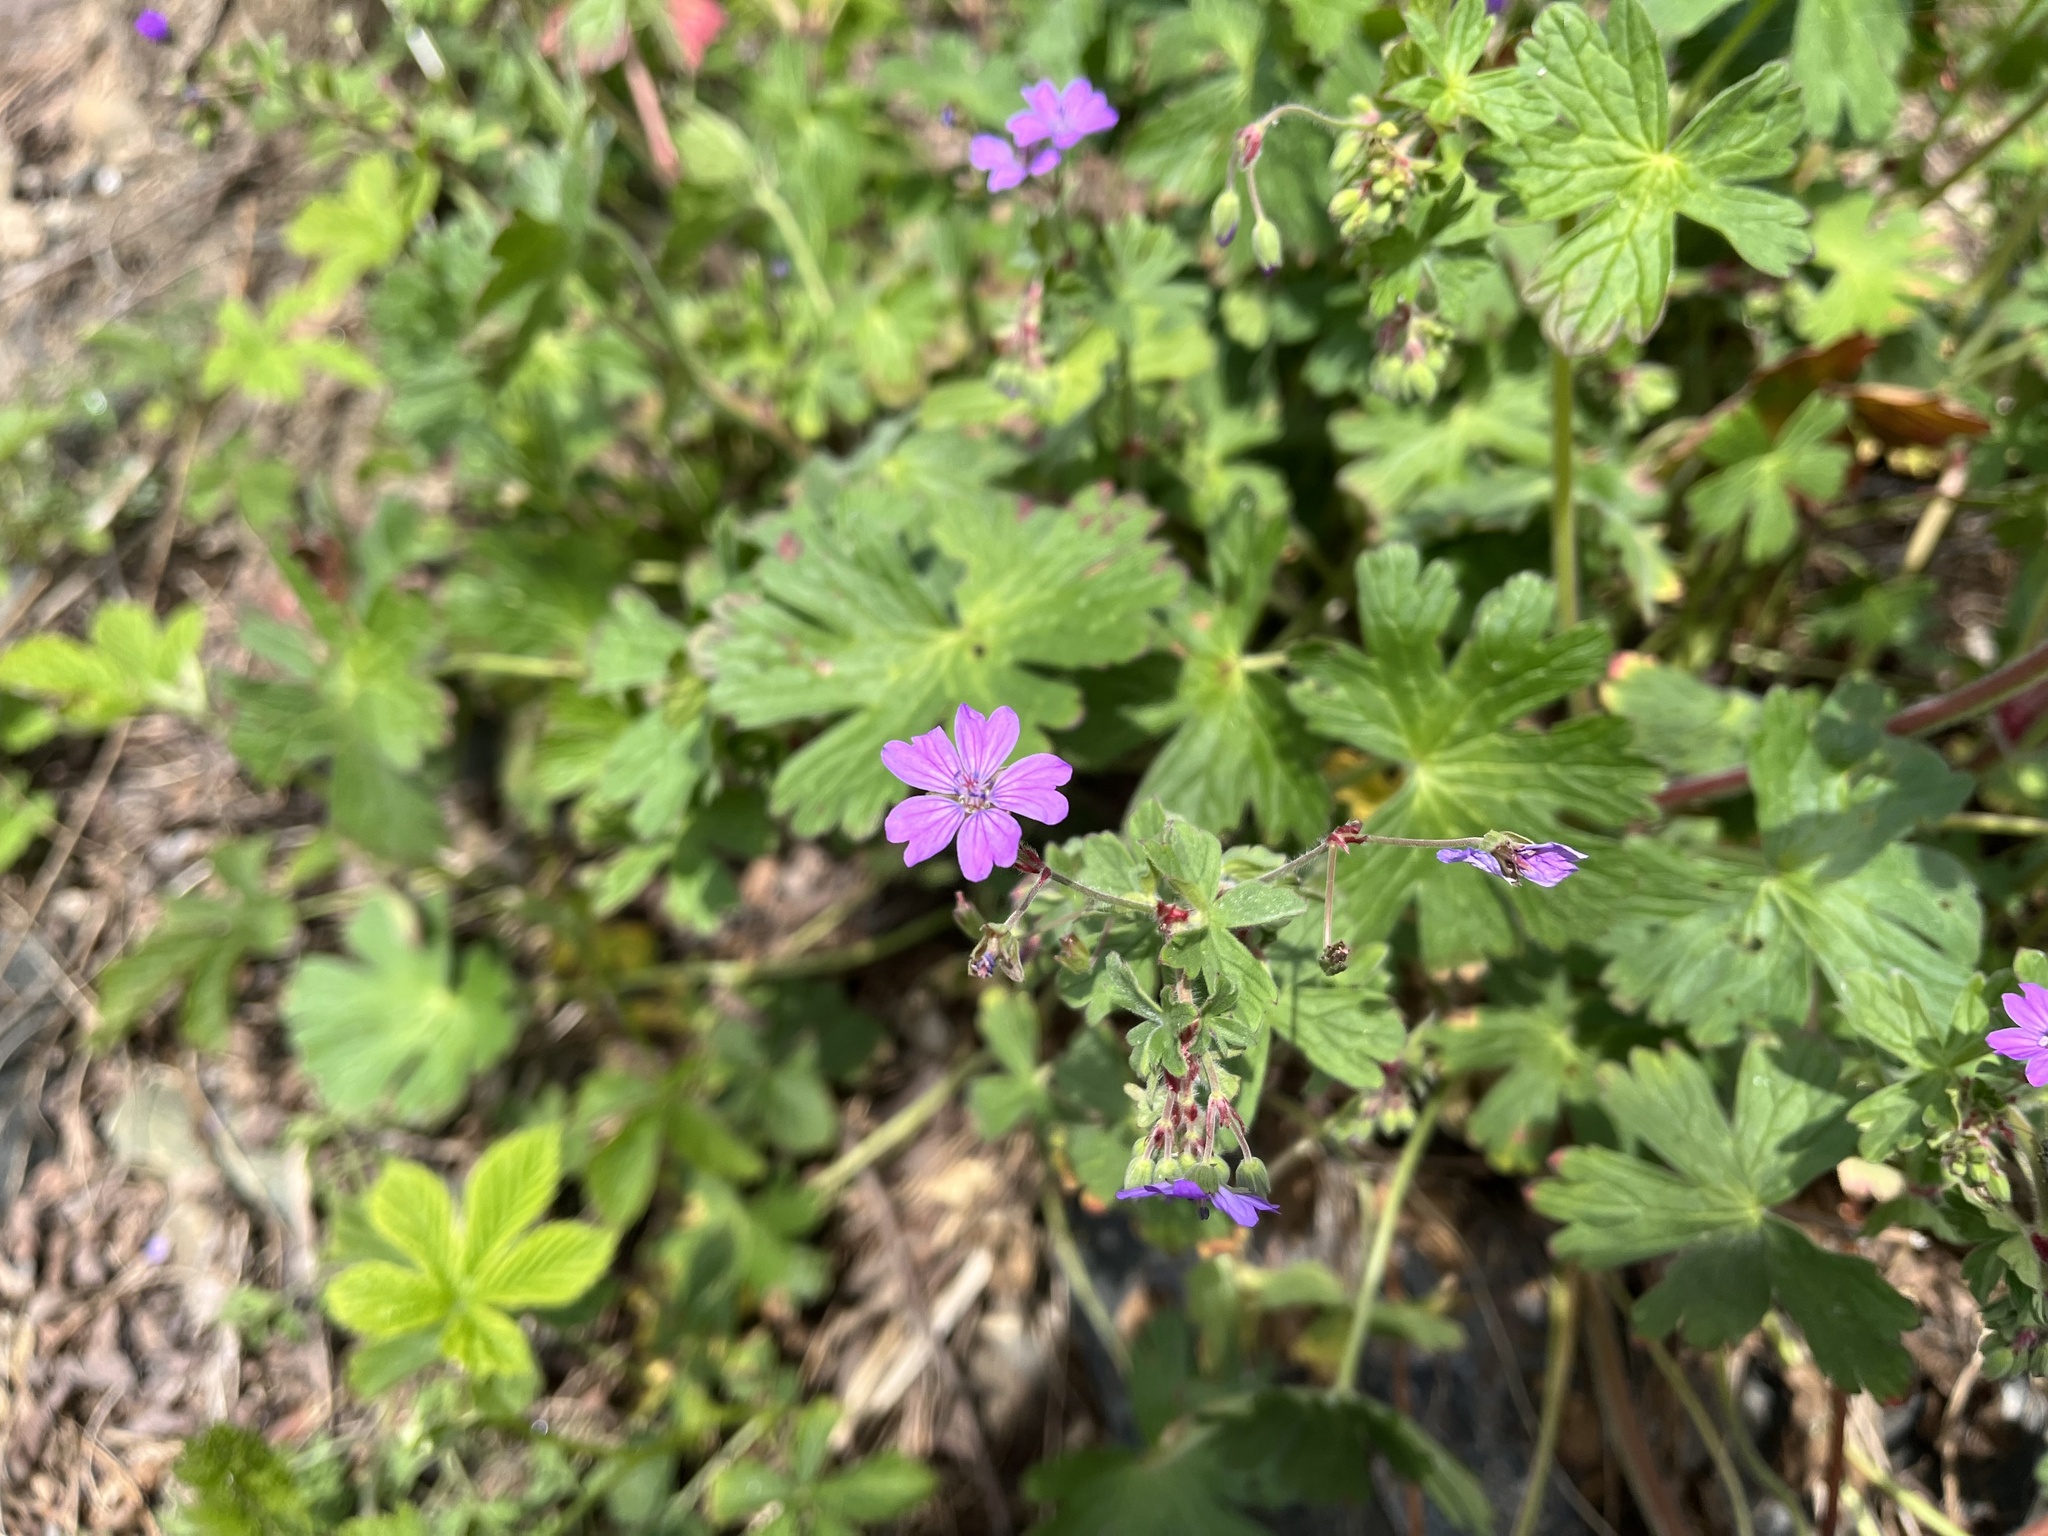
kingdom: Plantae
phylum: Tracheophyta
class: Magnoliopsida
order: Geraniales
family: Geraniaceae
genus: Geranium
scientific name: Geranium pyrenaicum
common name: Hedgerow crane's-bill
